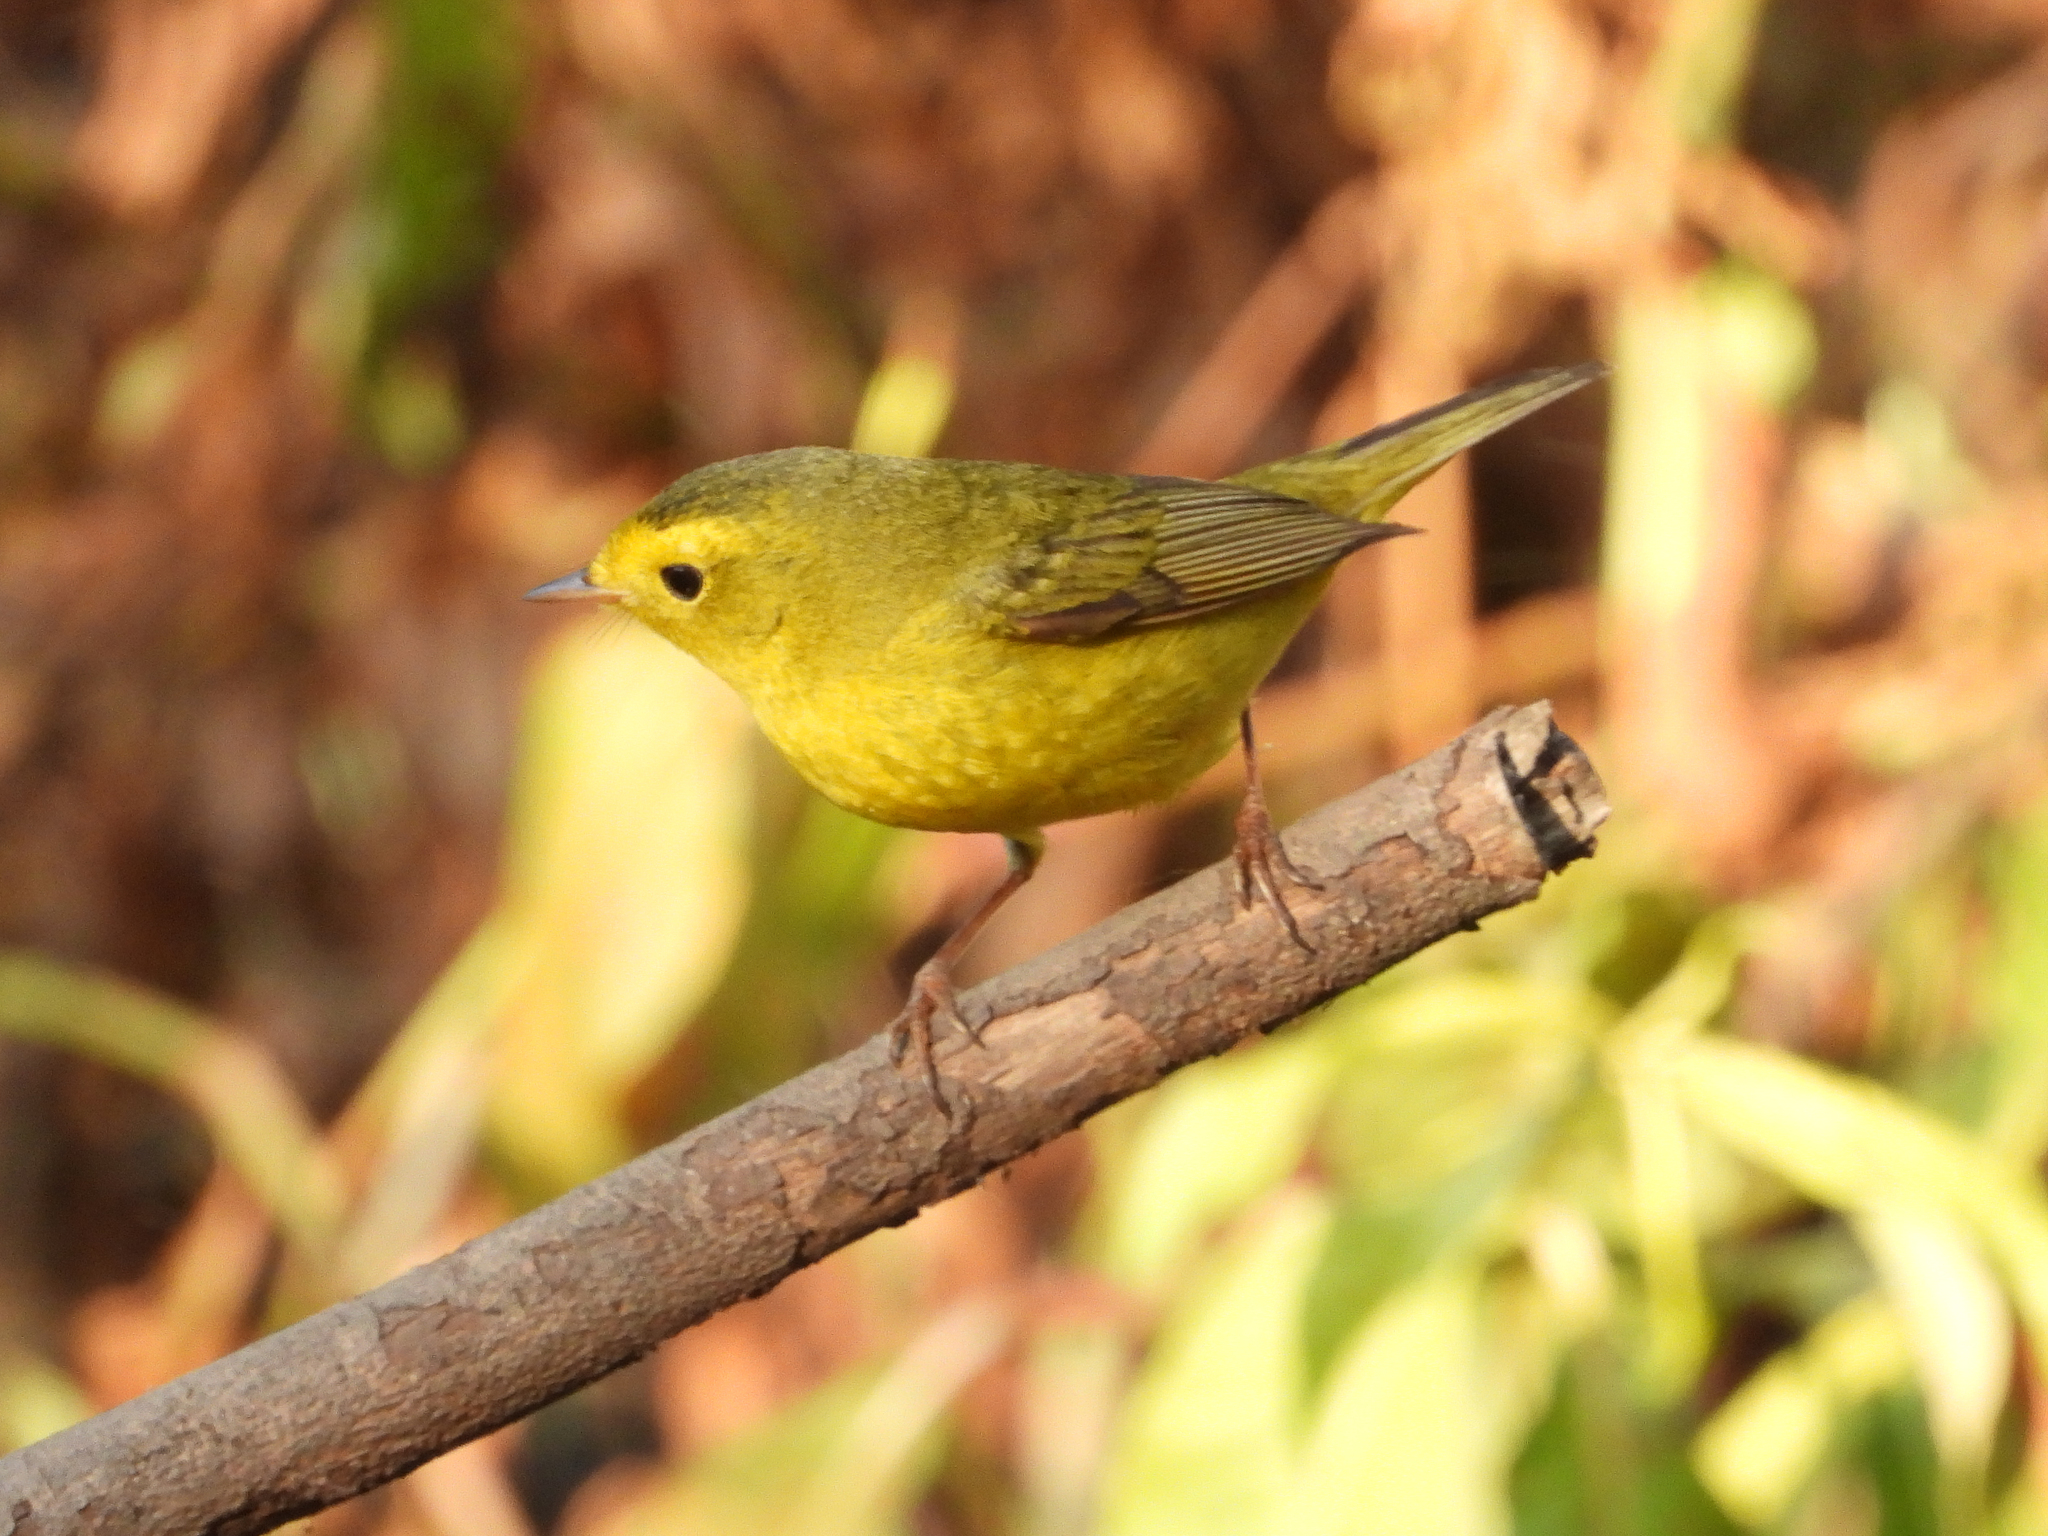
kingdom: Animalia
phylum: Chordata
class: Aves
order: Passeriformes
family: Parulidae
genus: Cardellina
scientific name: Cardellina pusilla
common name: Wilson's warbler
